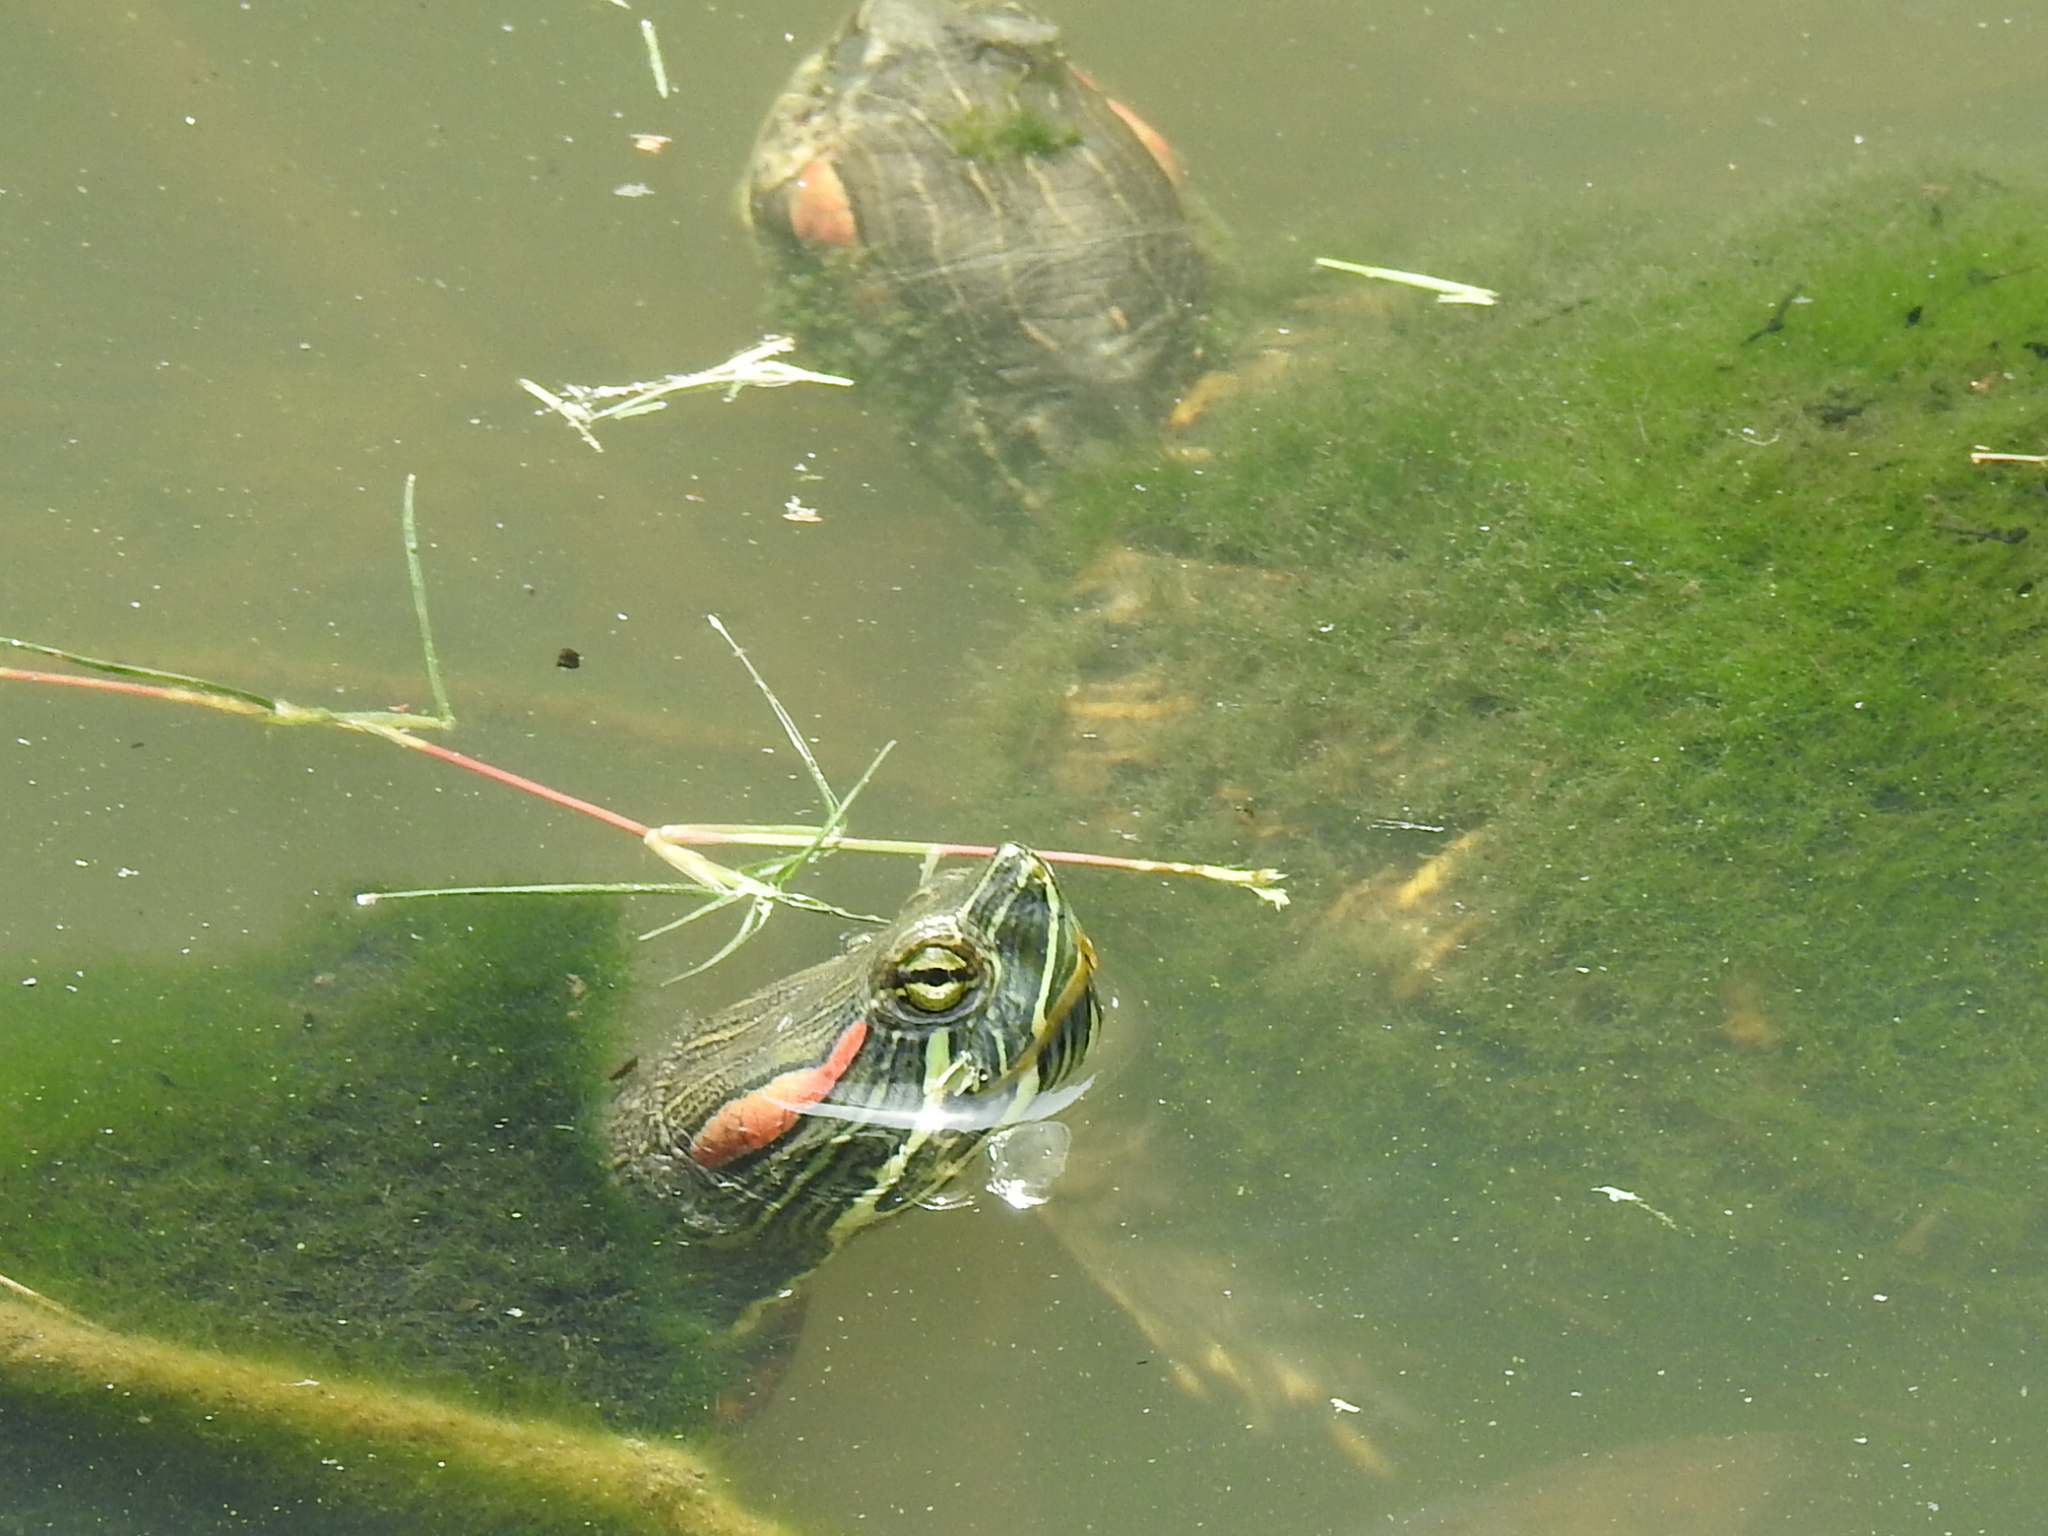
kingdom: Animalia
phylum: Chordata
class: Testudines
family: Emydidae
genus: Trachemys
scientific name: Trachemys scripta
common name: Slider
